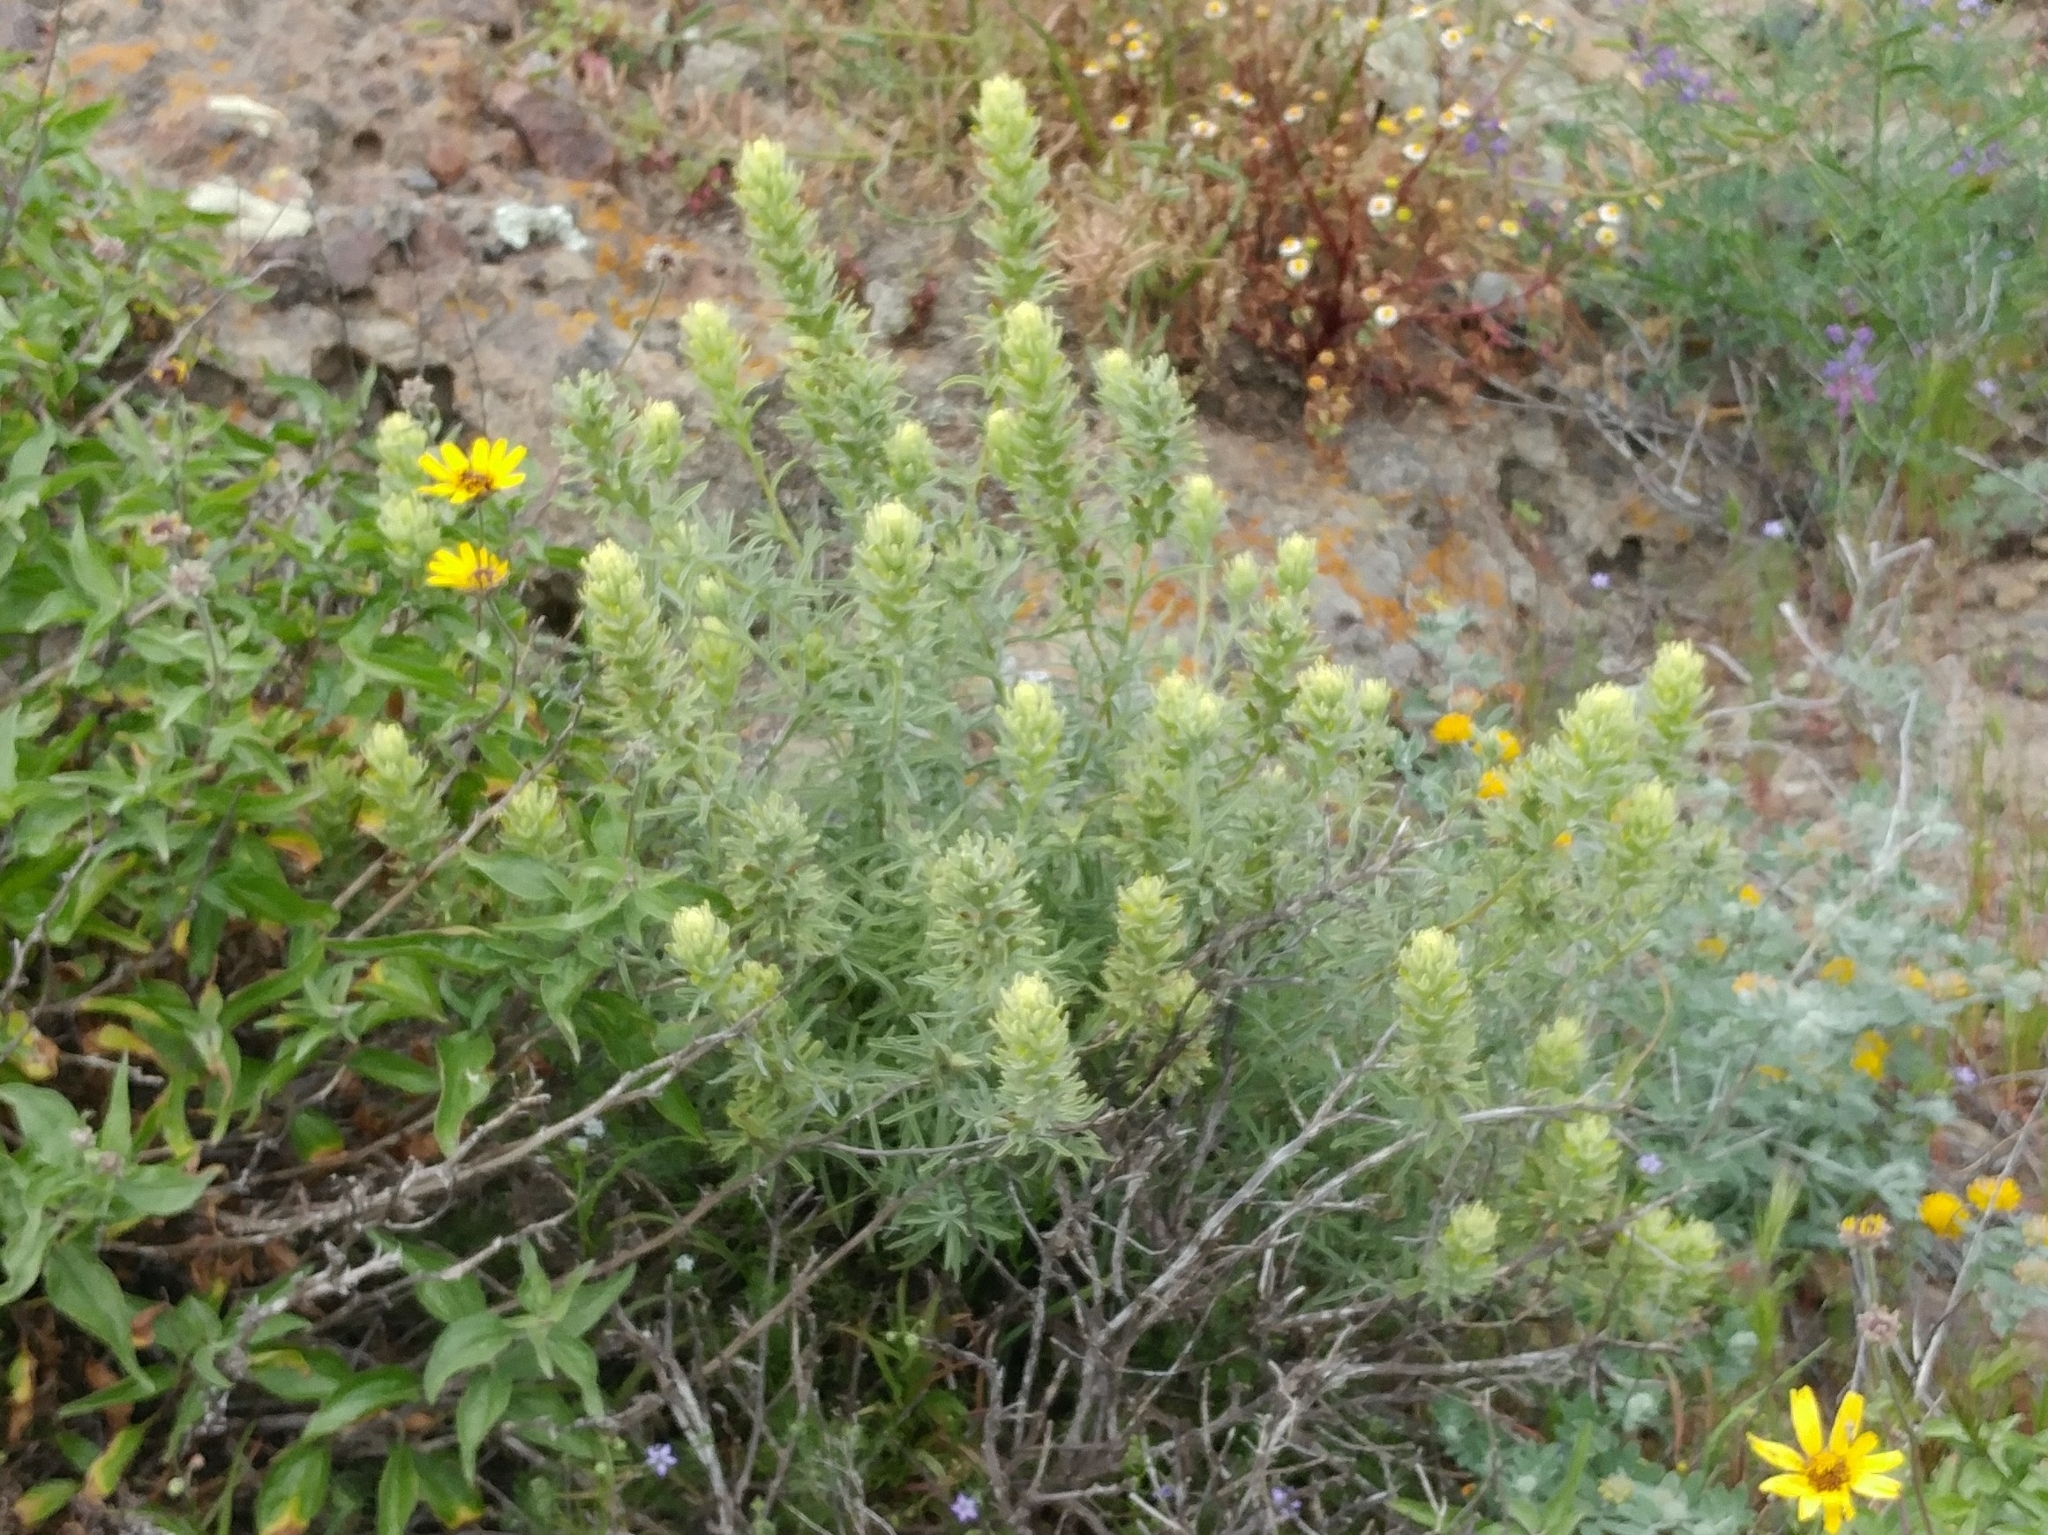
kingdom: Plantae
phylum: Tracheophyta
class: Magnoliopsida
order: Lamiales
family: Orobanchaceae
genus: Castilleja
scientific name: Castilleja grisea
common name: San clemente island indian paintbrush
